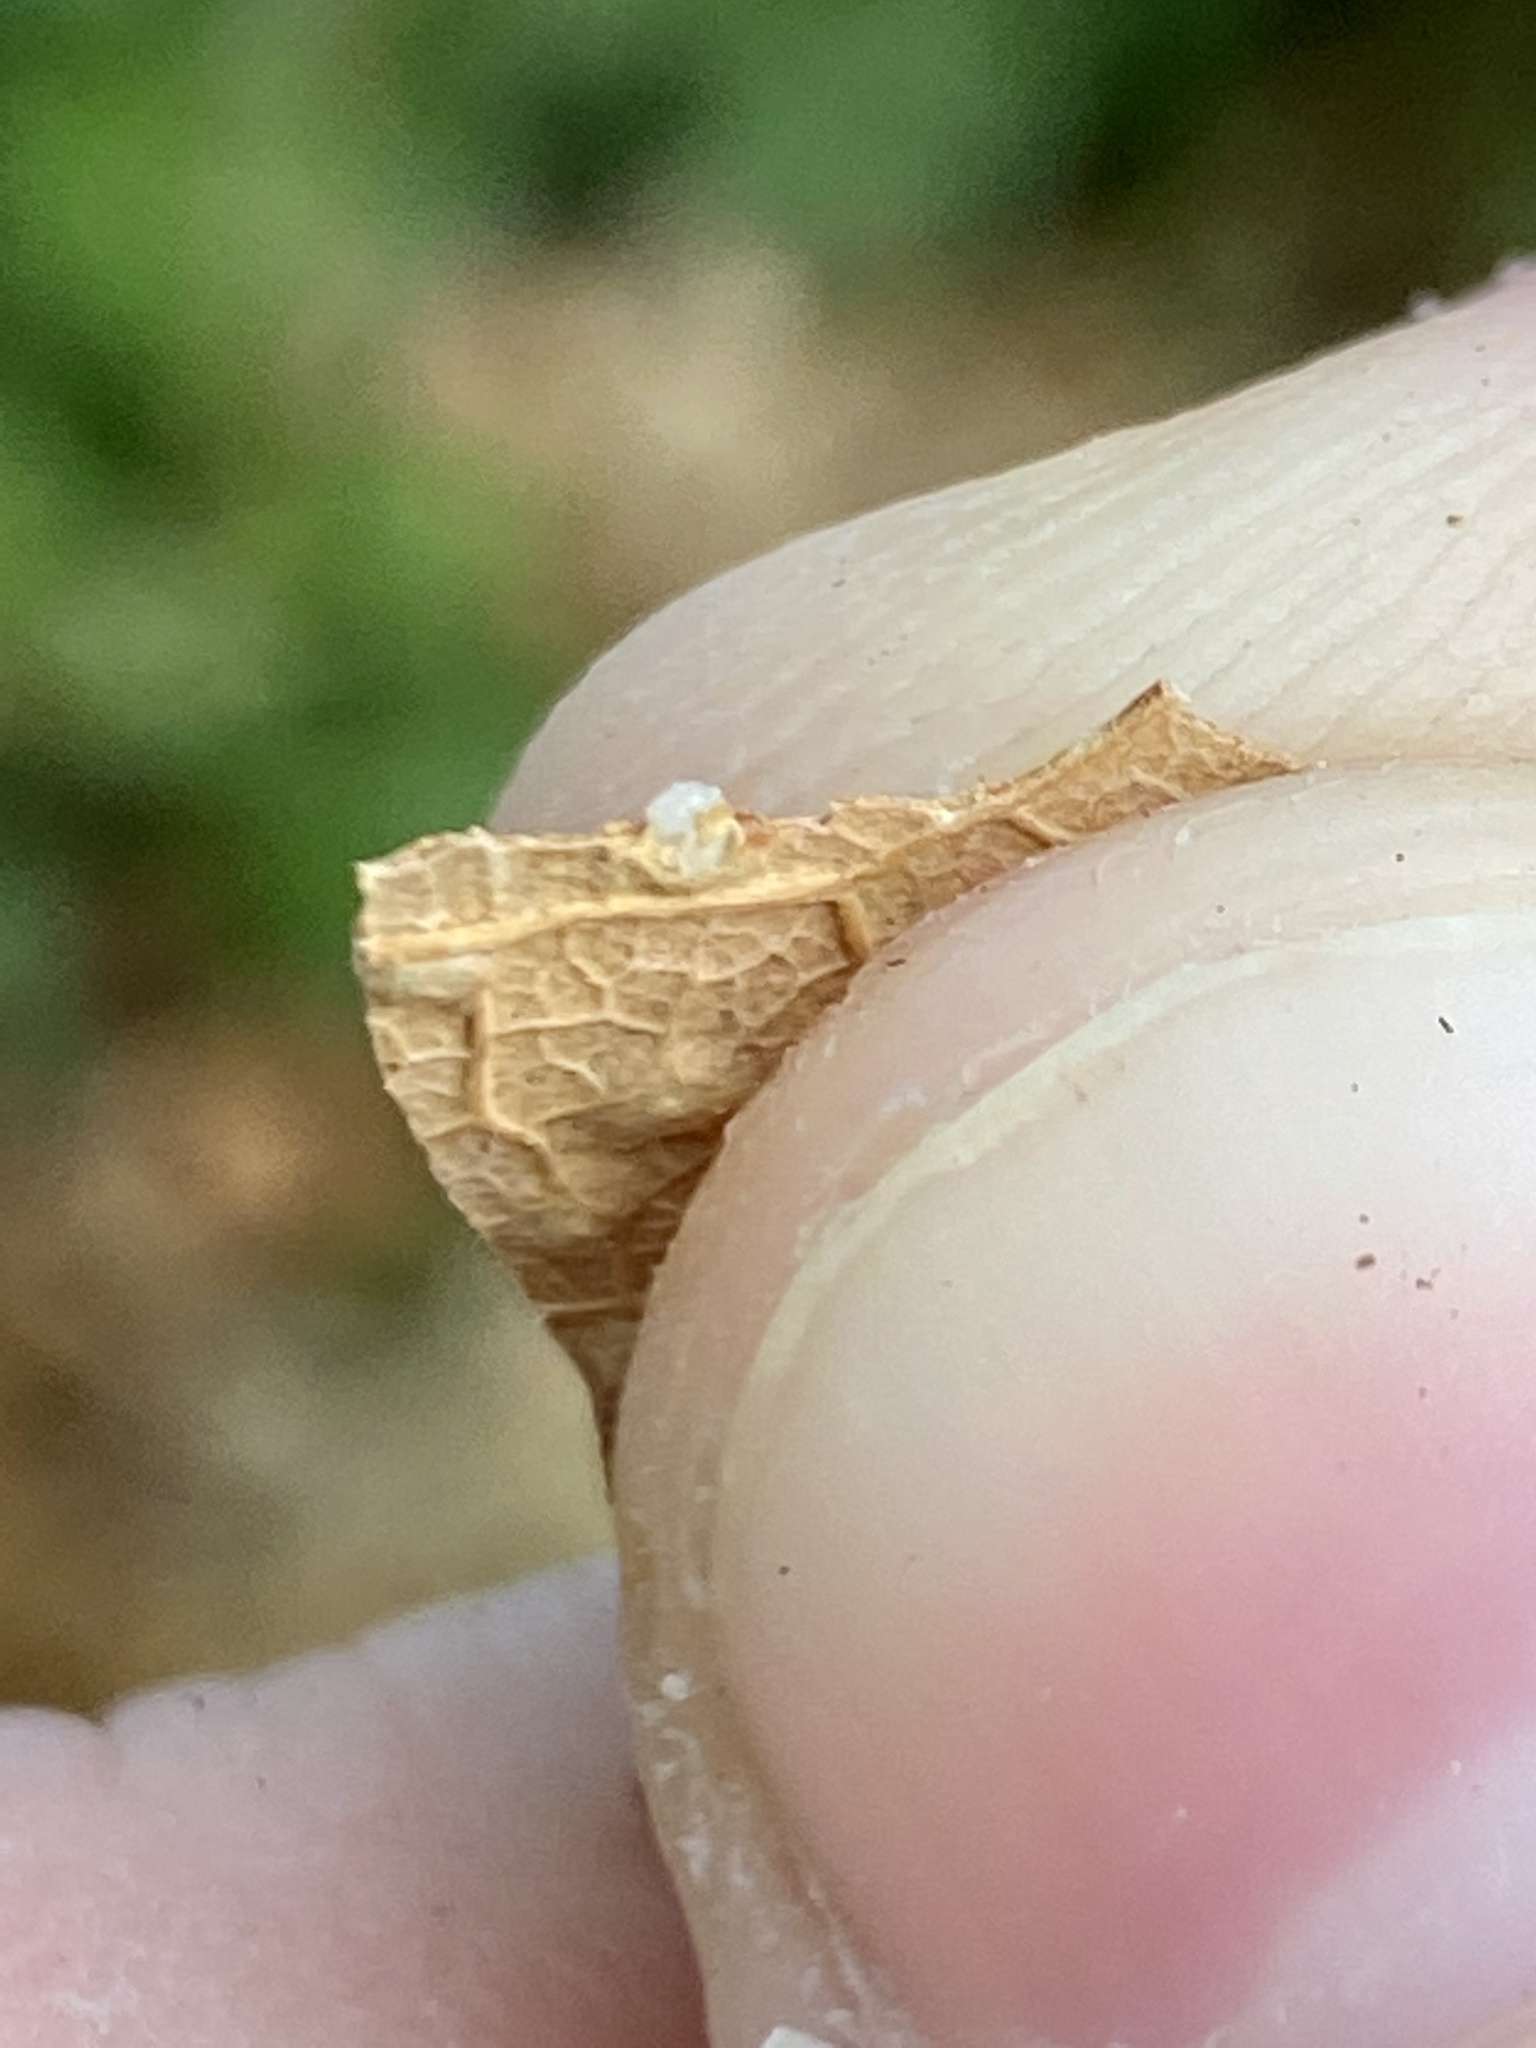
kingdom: Animalia
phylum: Arthropoda
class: Insecta
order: Hymenoptera
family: Cynipidae
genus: Neuroterus
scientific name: Neuroterus niger
